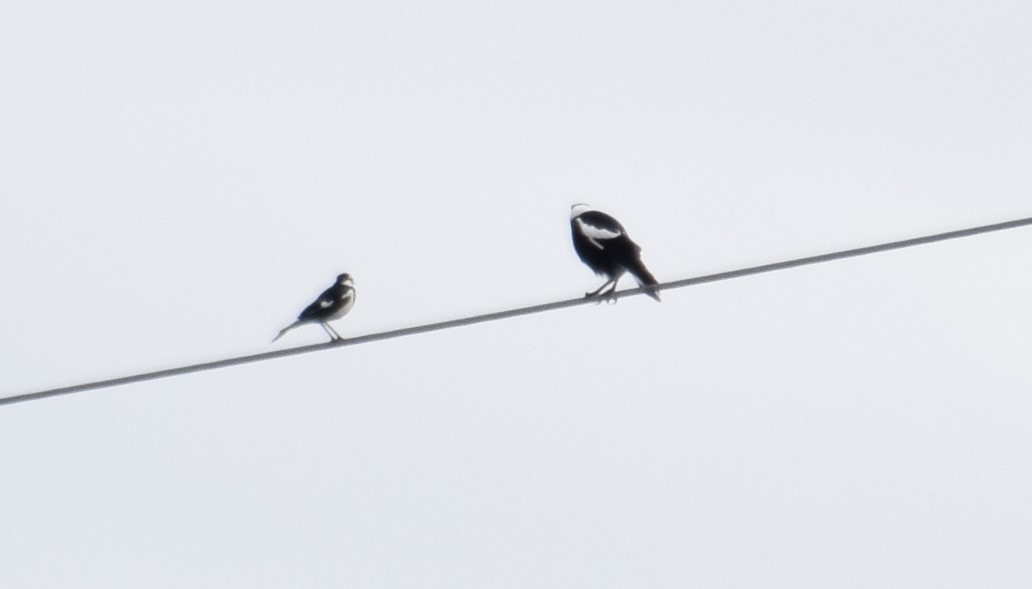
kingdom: Animalia
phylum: Chordata
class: Aves
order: Passeriformes
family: Cracticidae
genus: Gymnorhina
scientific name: Gymnorhina tibicen
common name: Australian magpie
